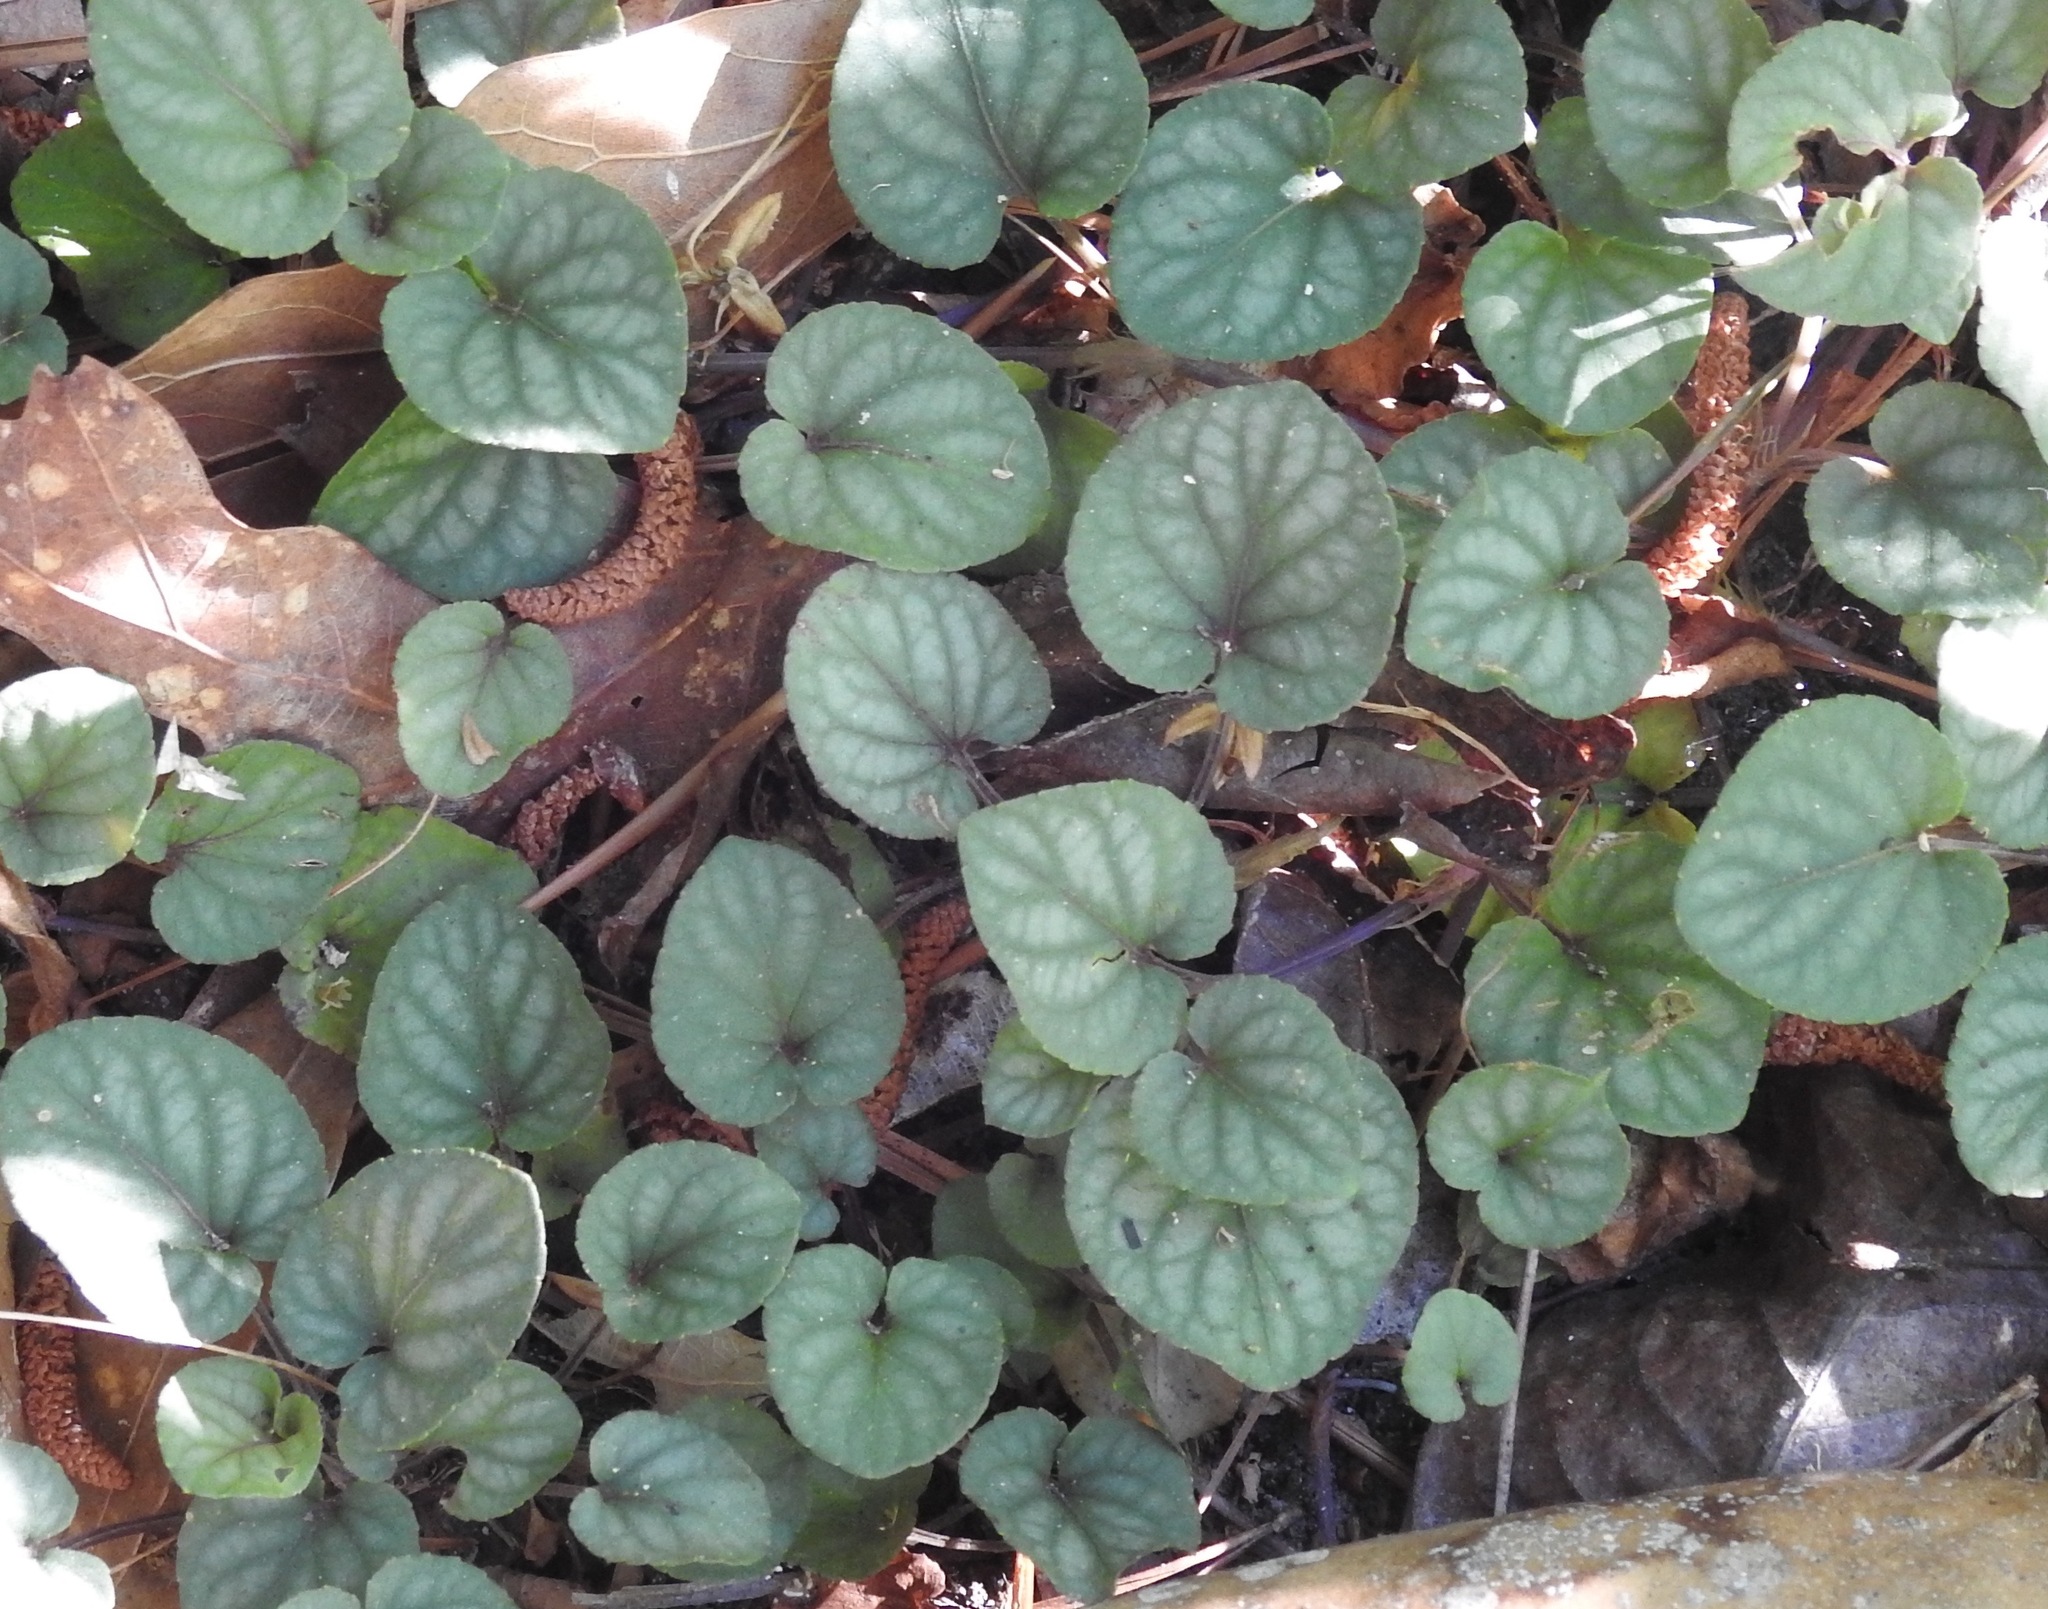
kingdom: Plantae
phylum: Tracheophyta
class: Magnoliopsida
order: Malpighiales
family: Violaceae
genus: Viola
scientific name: Viola walteri
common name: Prostrate southern violet
